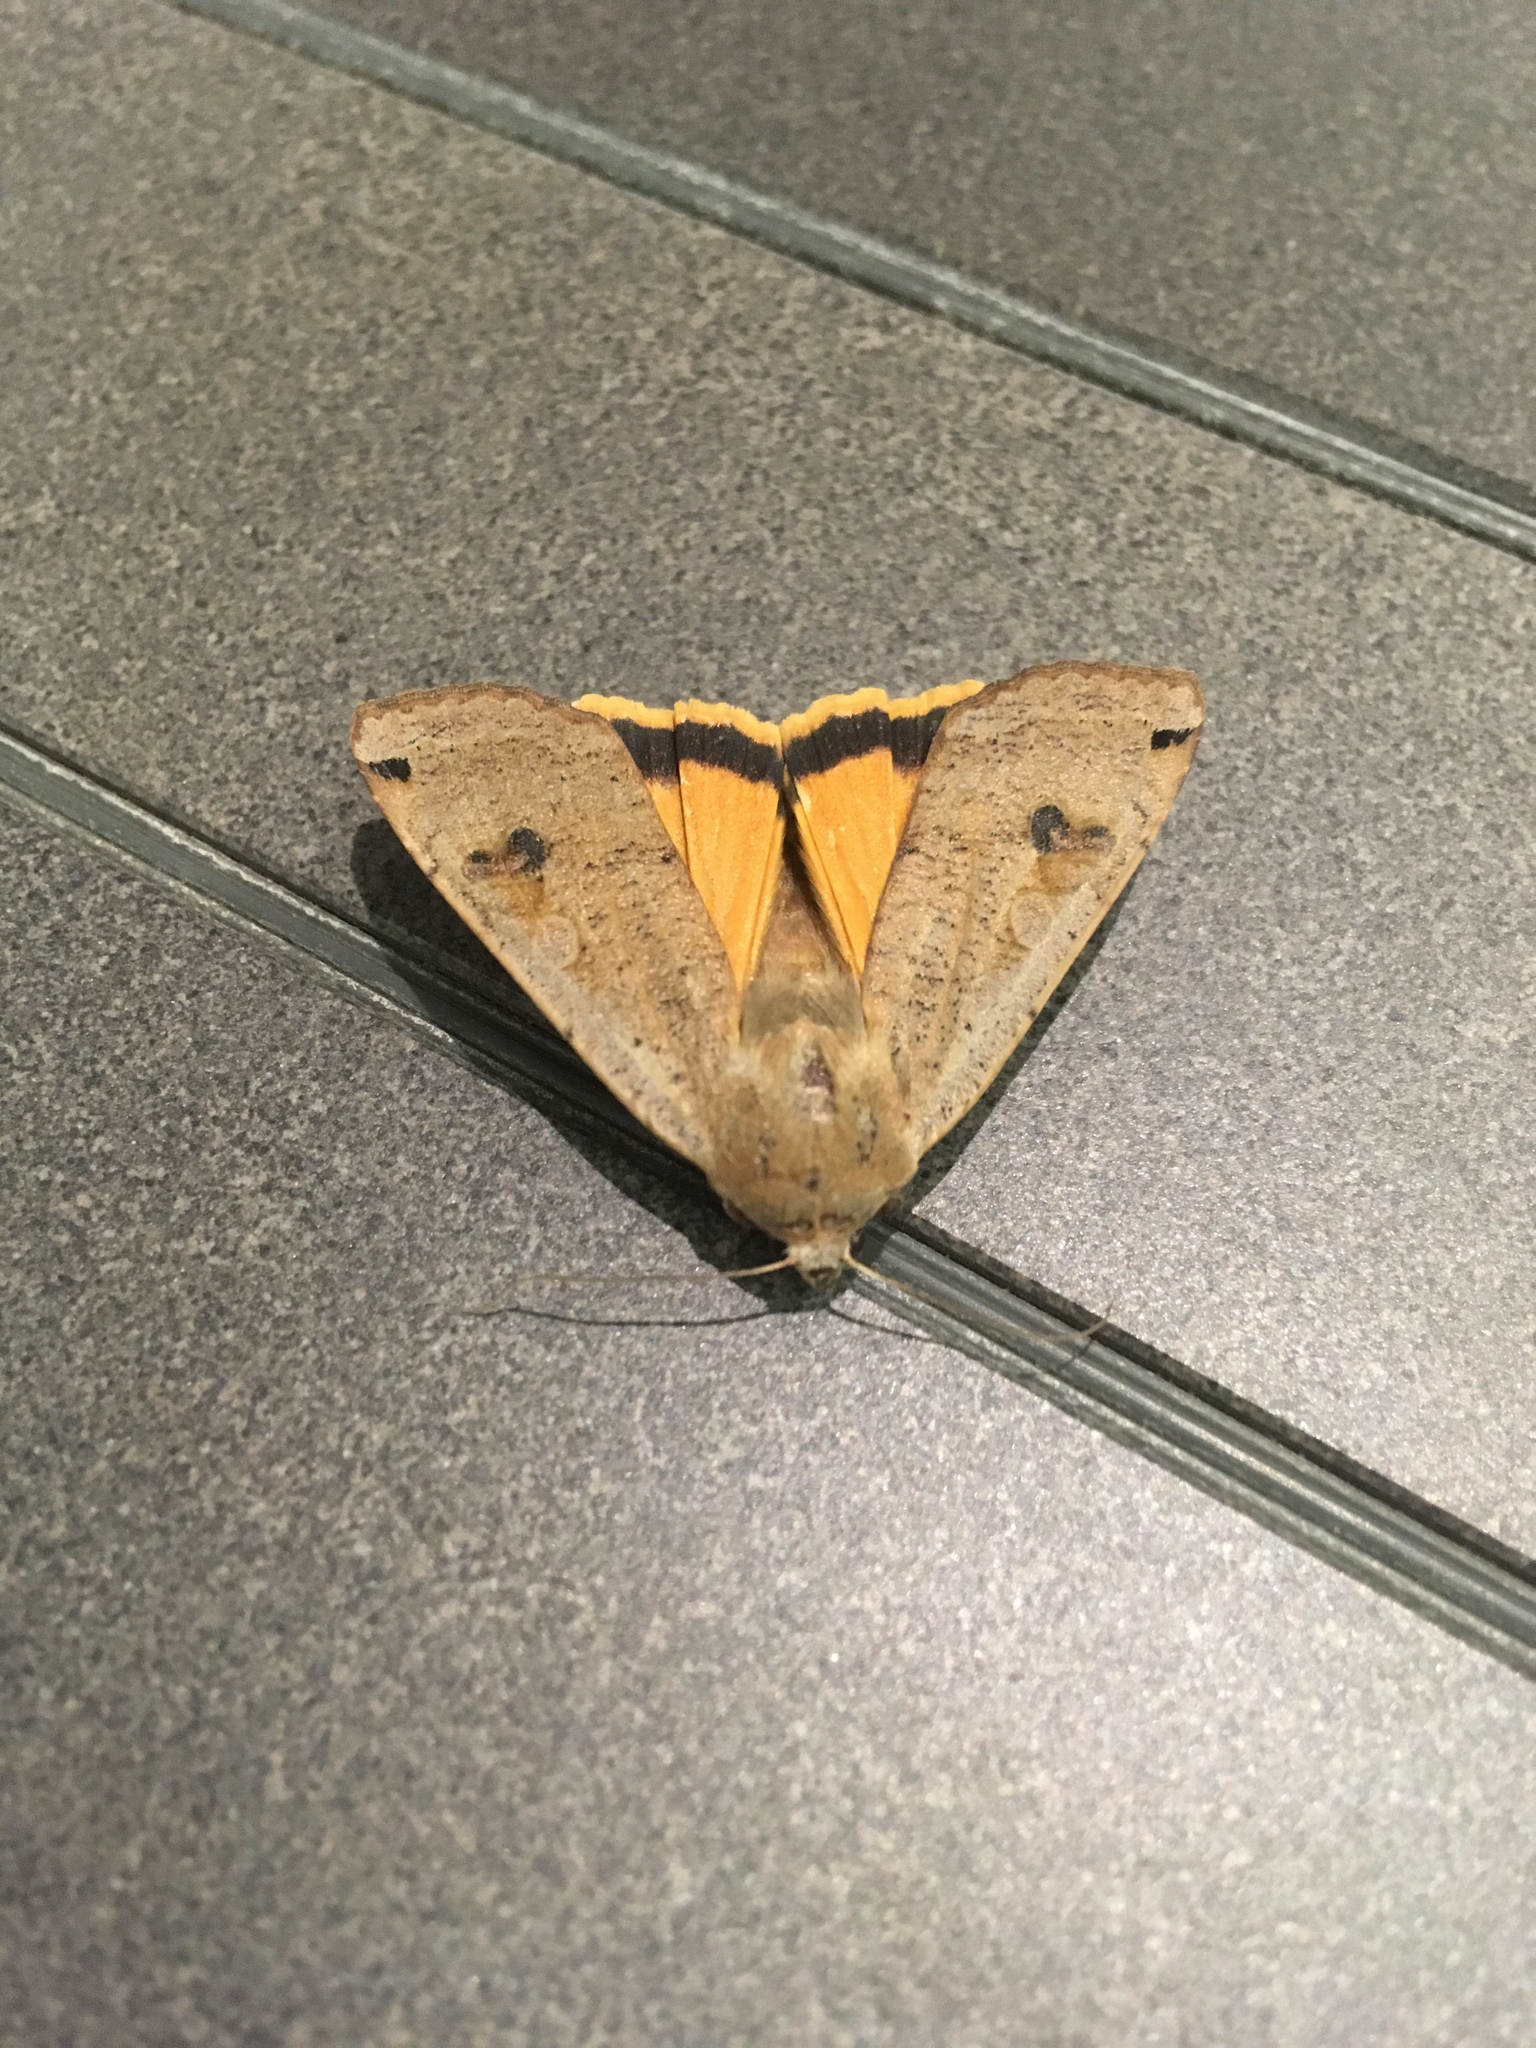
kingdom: Animalia
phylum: Arthropoda
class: Insecta
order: Lepidoptera
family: Noctuidae
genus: Noctua
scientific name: Noctua pronuba
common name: Large yellow underwing
